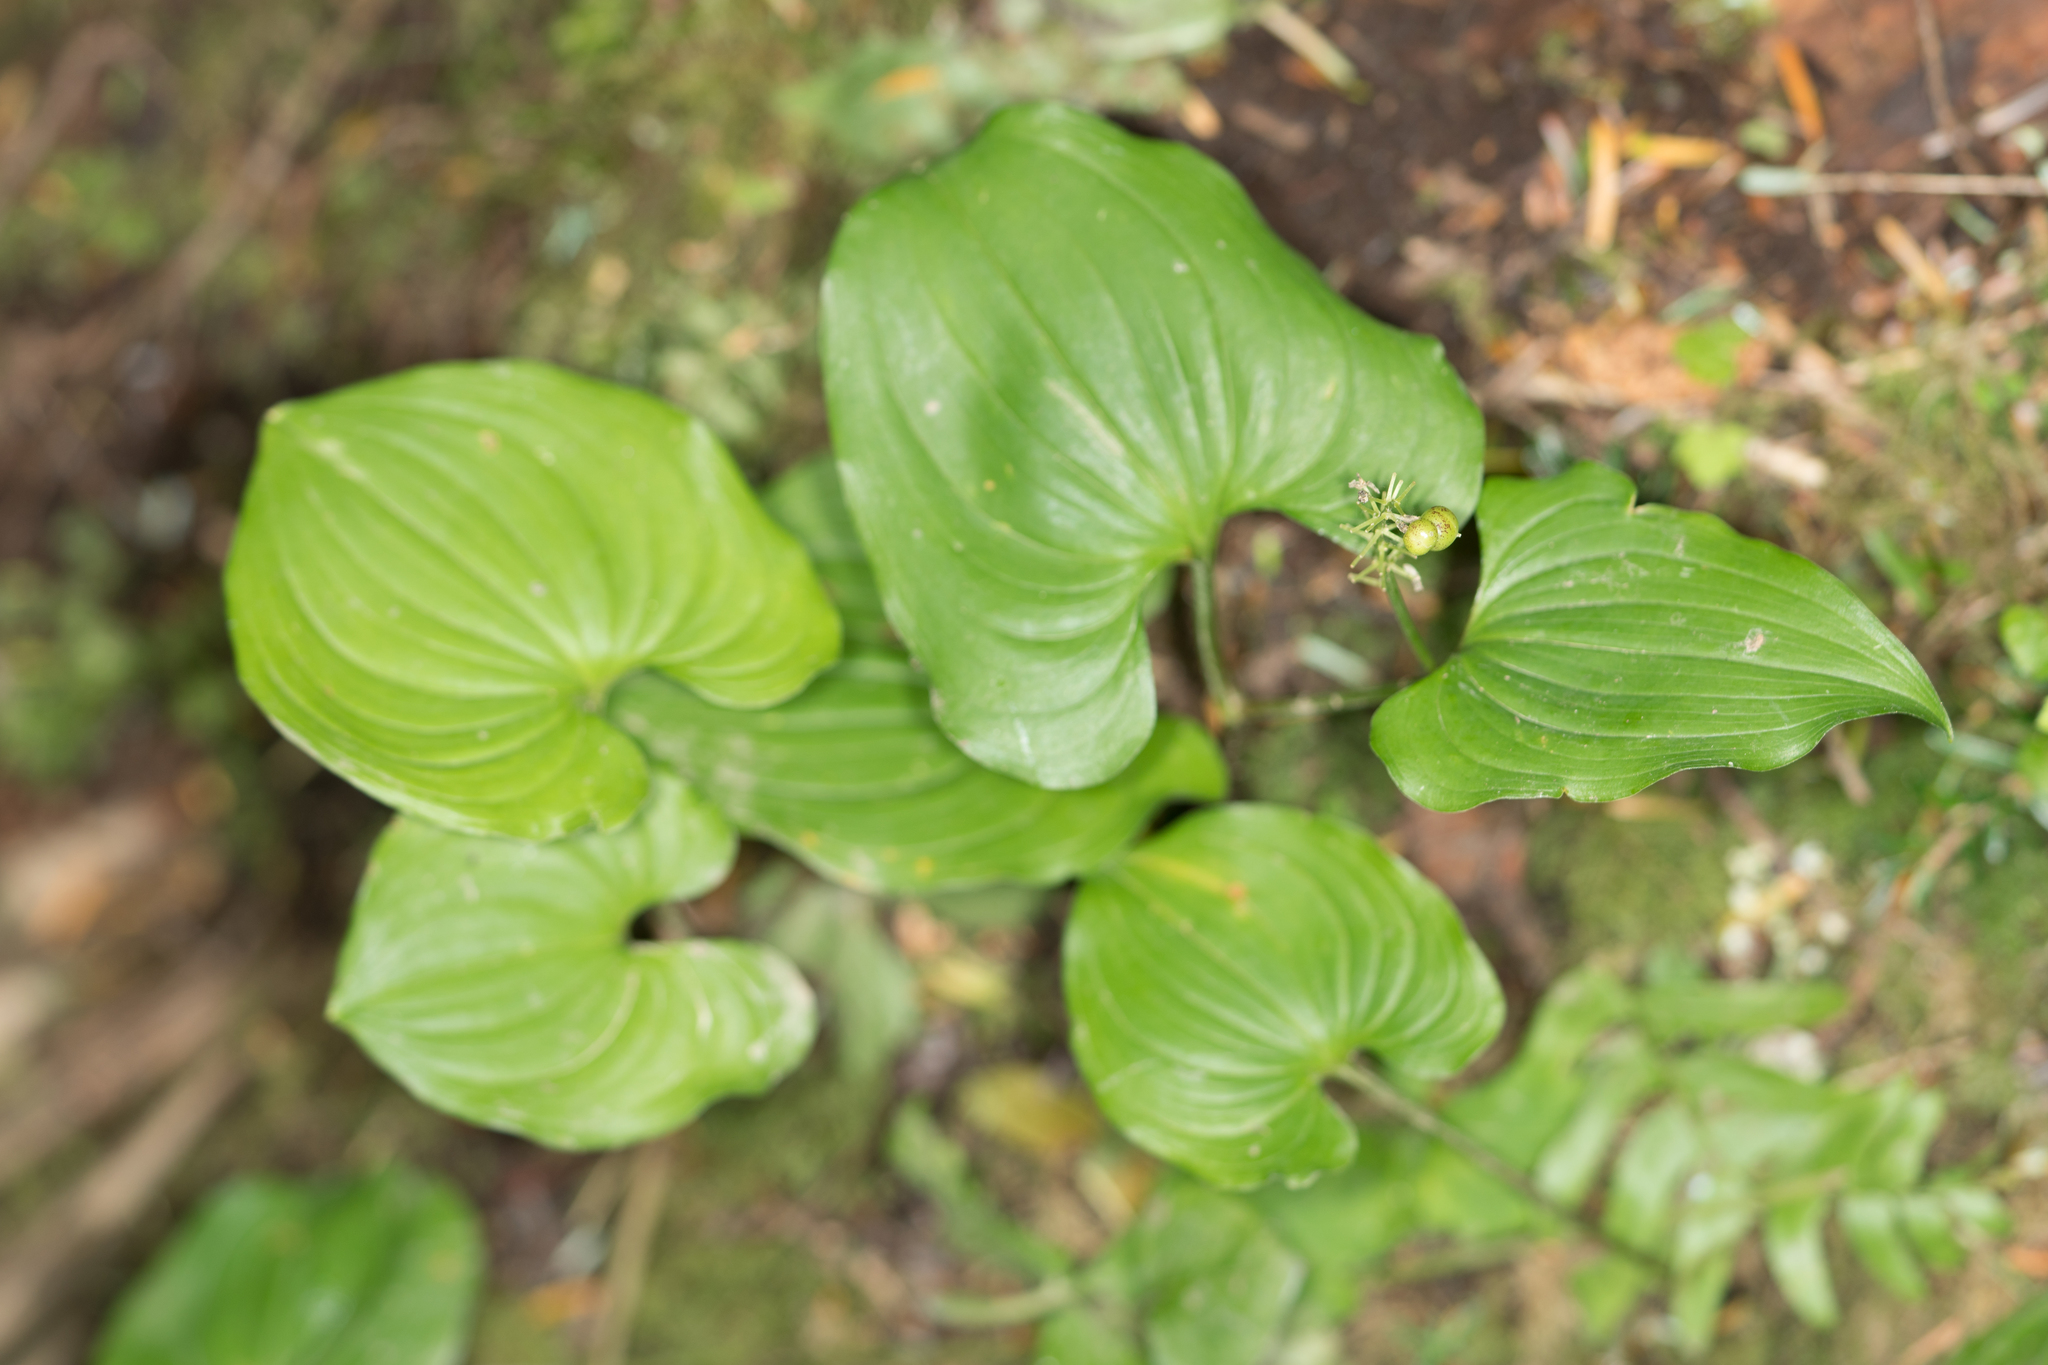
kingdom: Plantae
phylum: Tracheophyta
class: Liliopsida
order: Asparagales
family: Asparagaceae
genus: Maianthemum
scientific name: Maianthemum dilatatum
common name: False lily-of-the-valley
